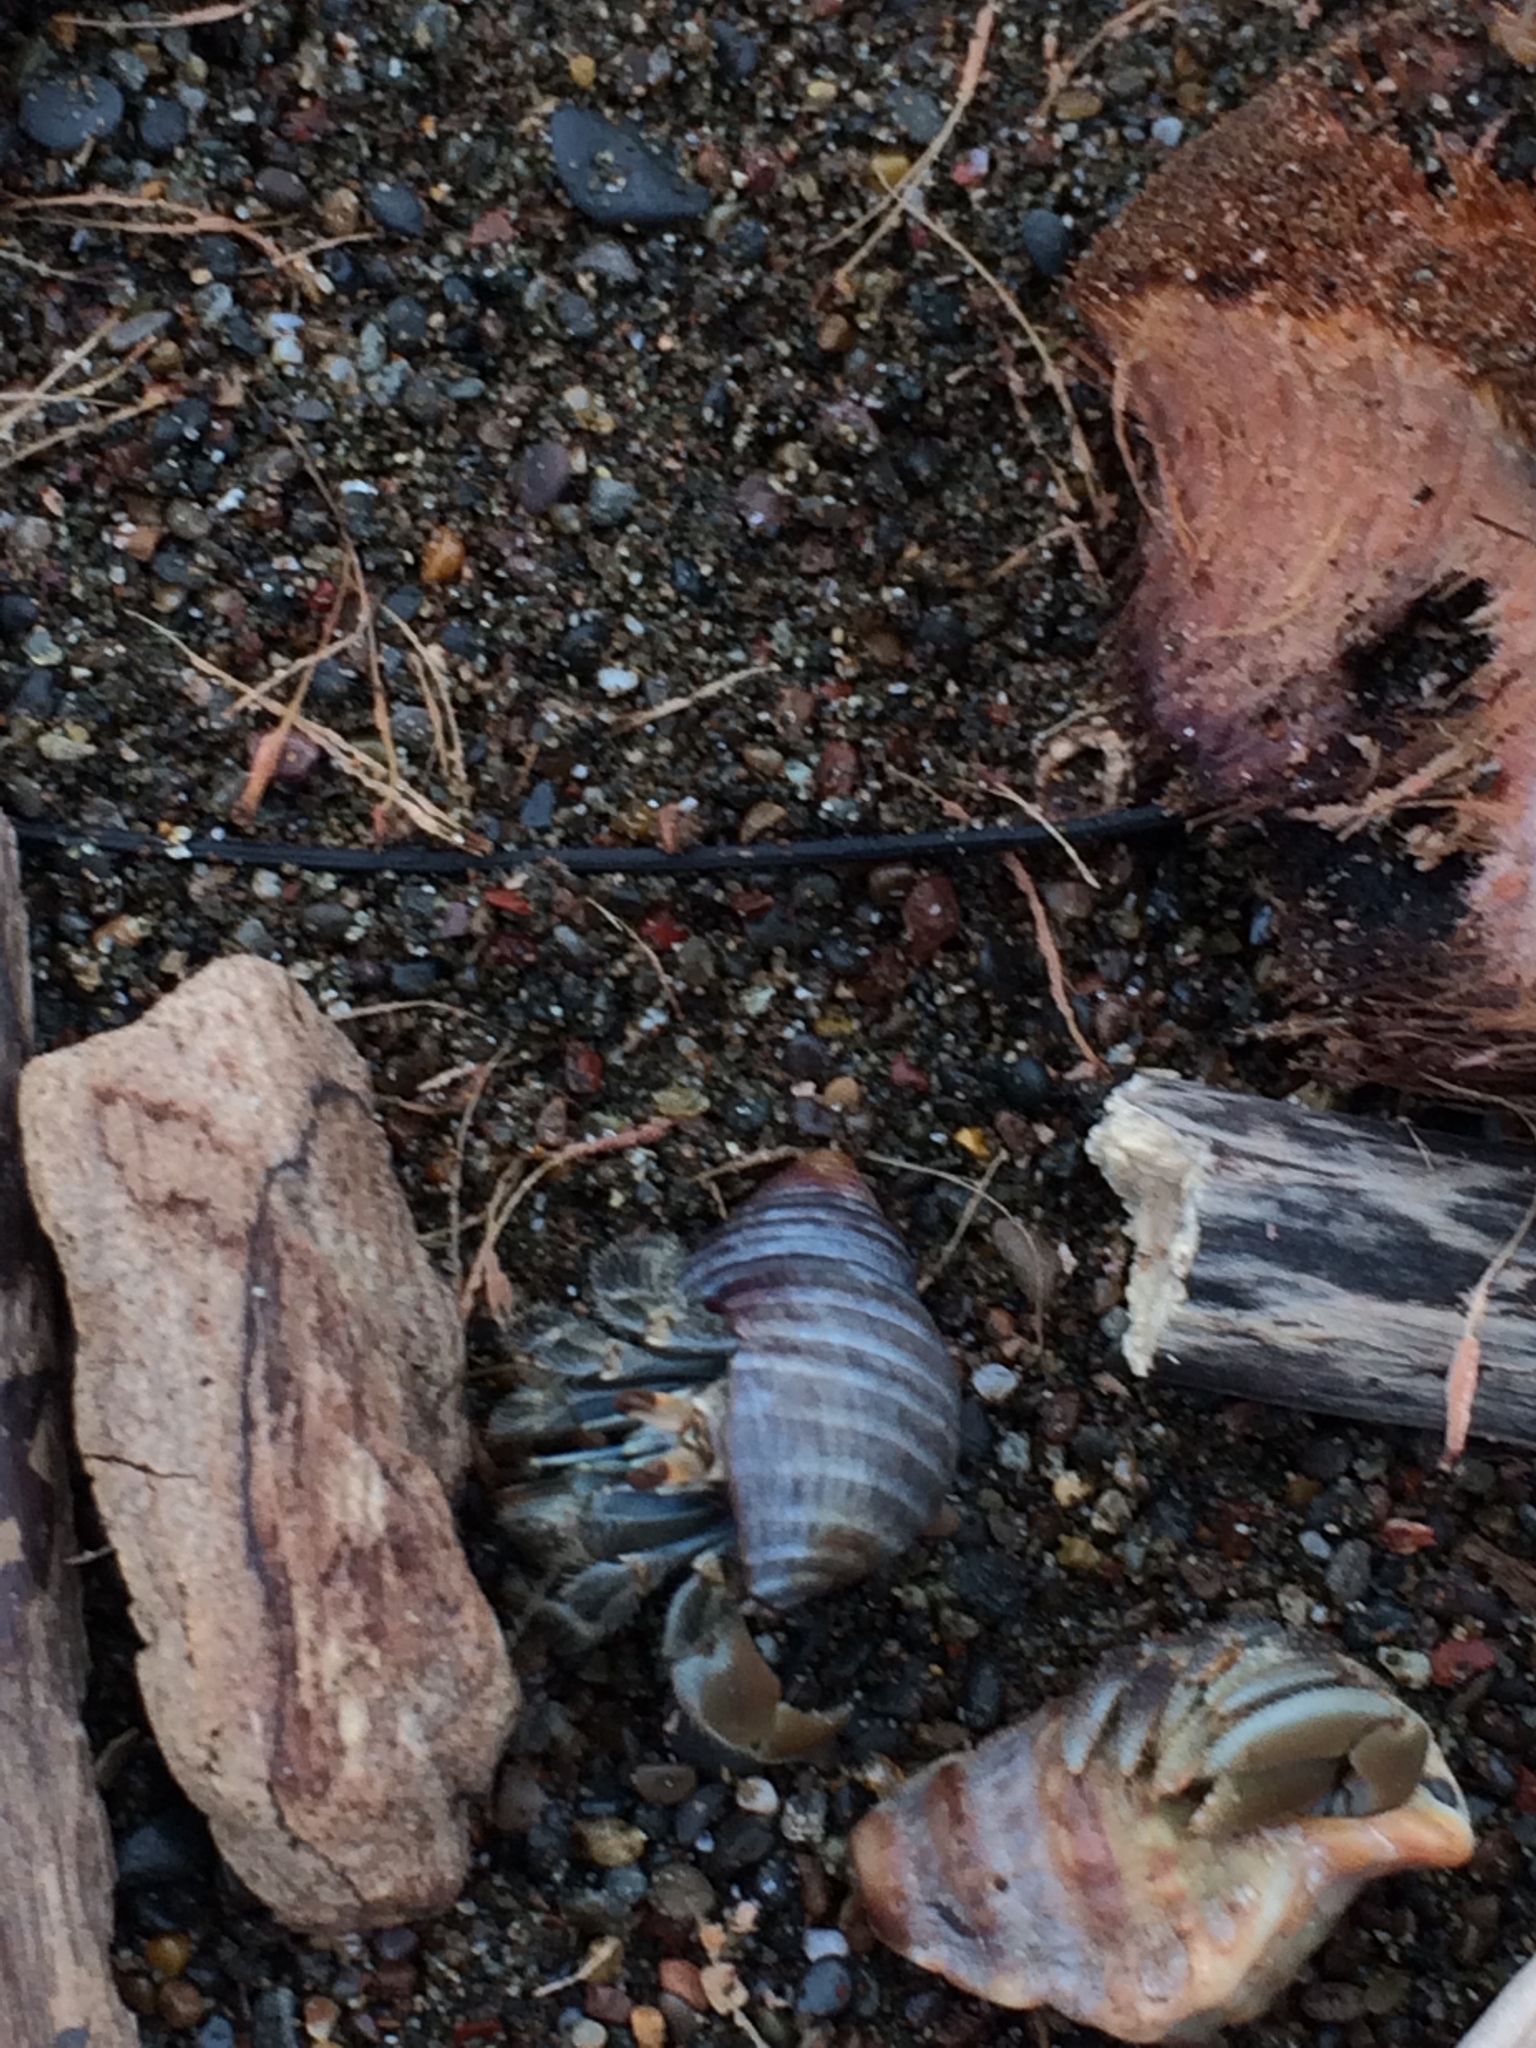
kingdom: Animalia
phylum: Arthropoda
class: Malacostraca
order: Decapoda
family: Coenobitidae
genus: Coenobita
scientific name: Coenobita compressus
